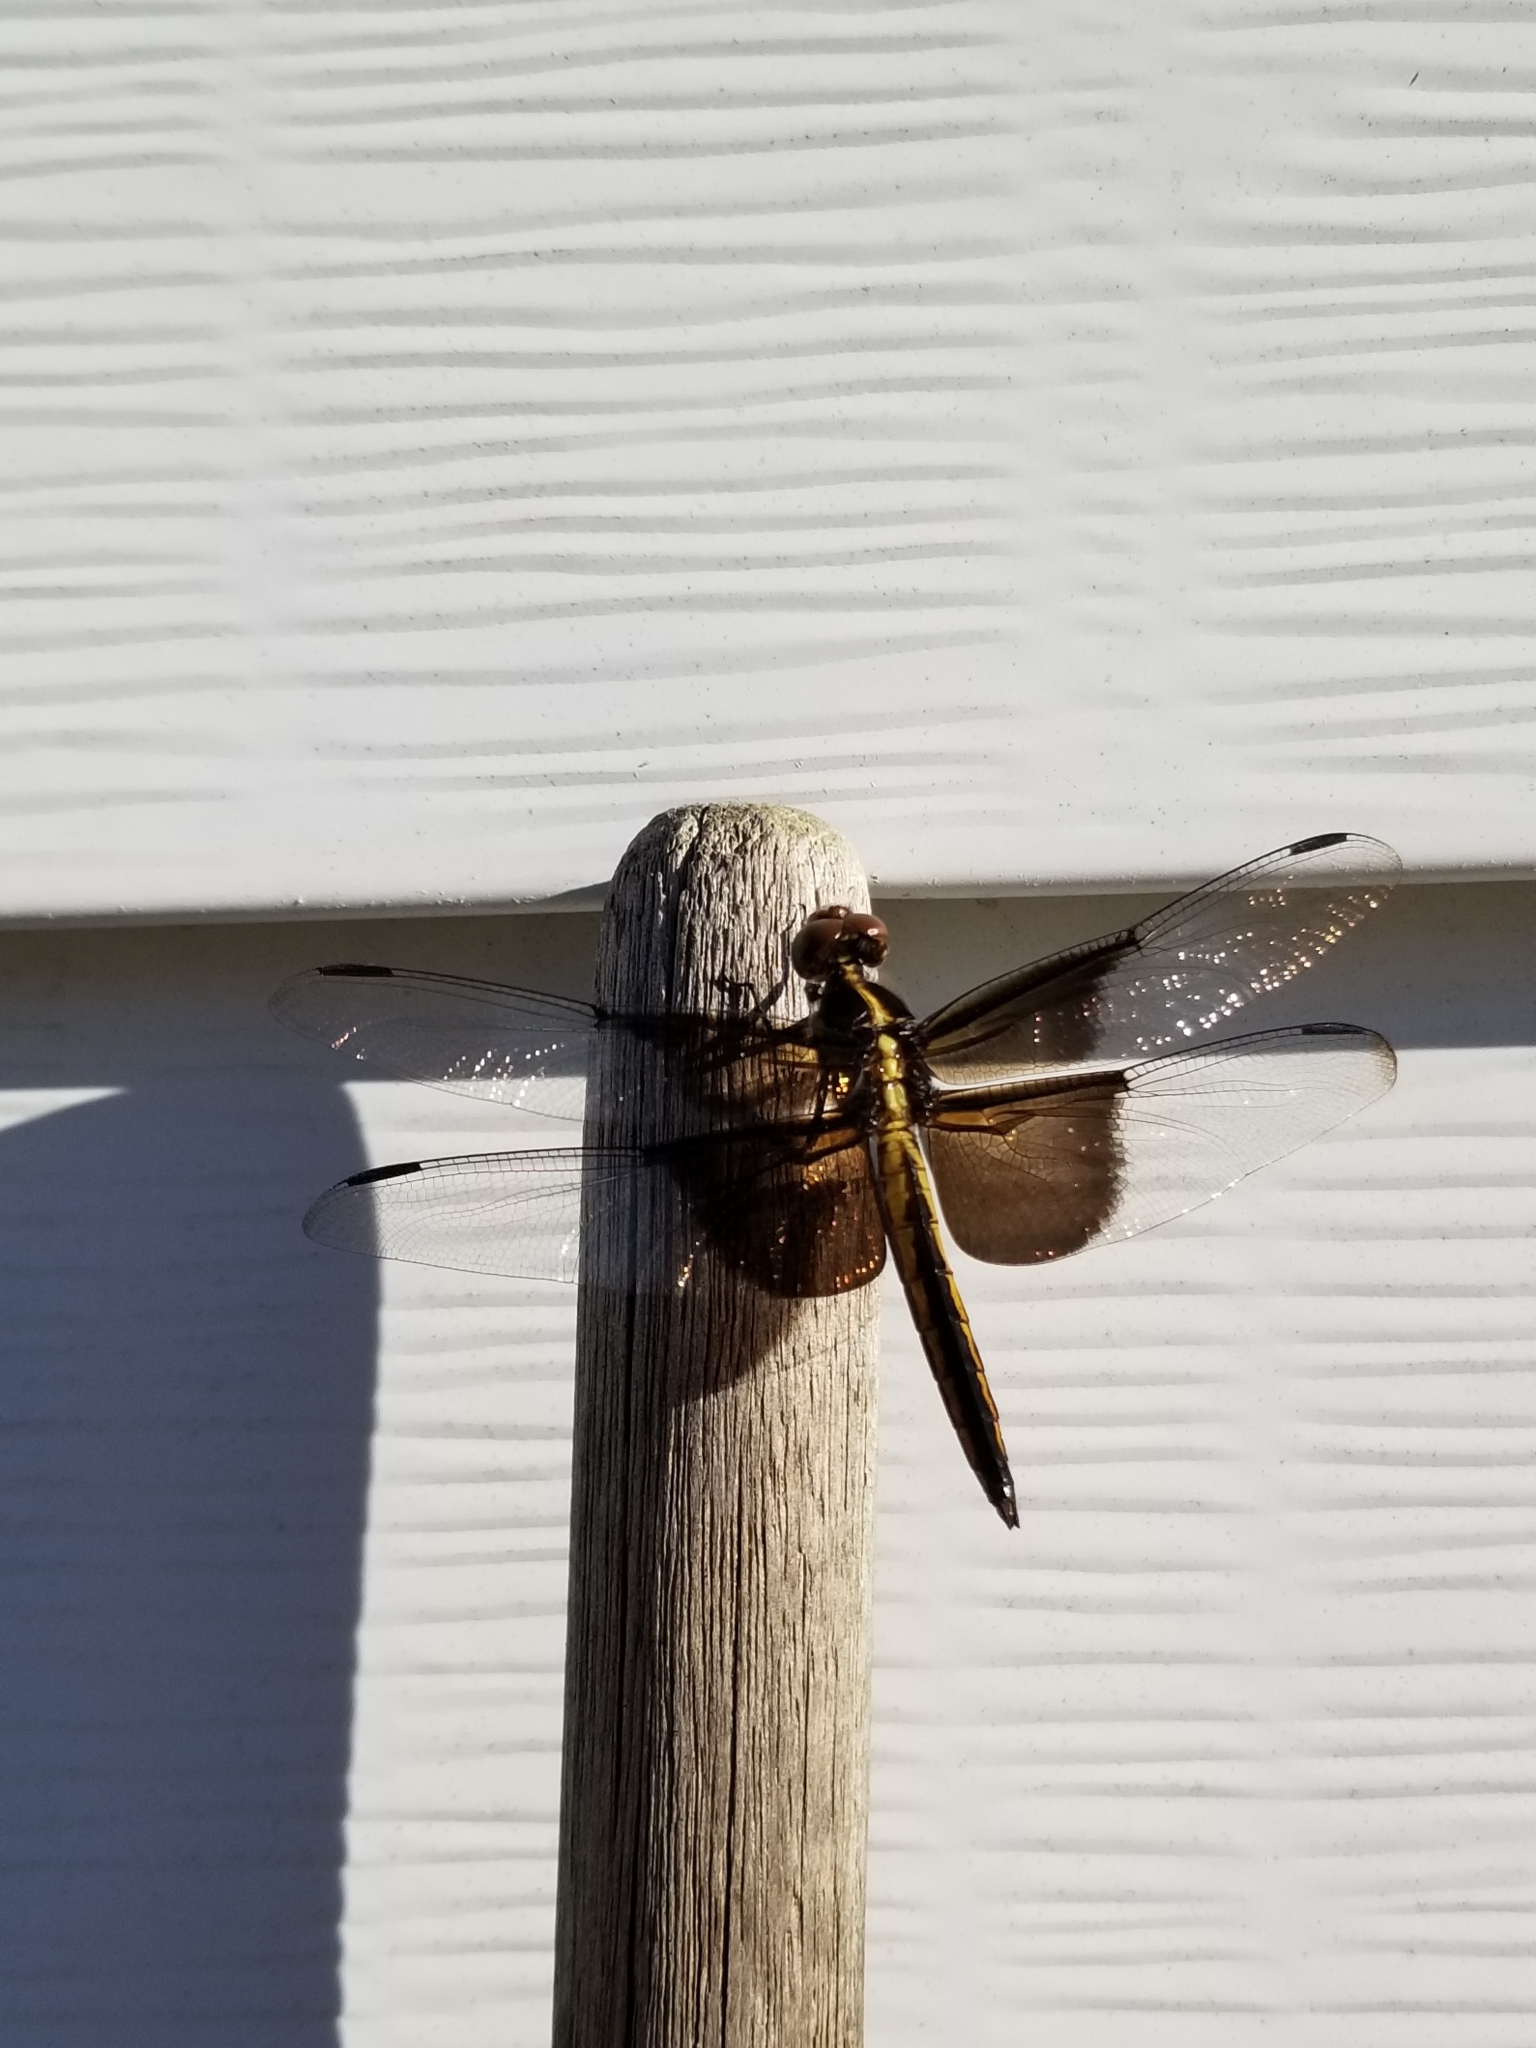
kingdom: Animalia
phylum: Arthropoda
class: Insecta
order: Odonata
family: Libellulidae
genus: Libellula
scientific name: Libellula luctuosa
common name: Widow skimmer
